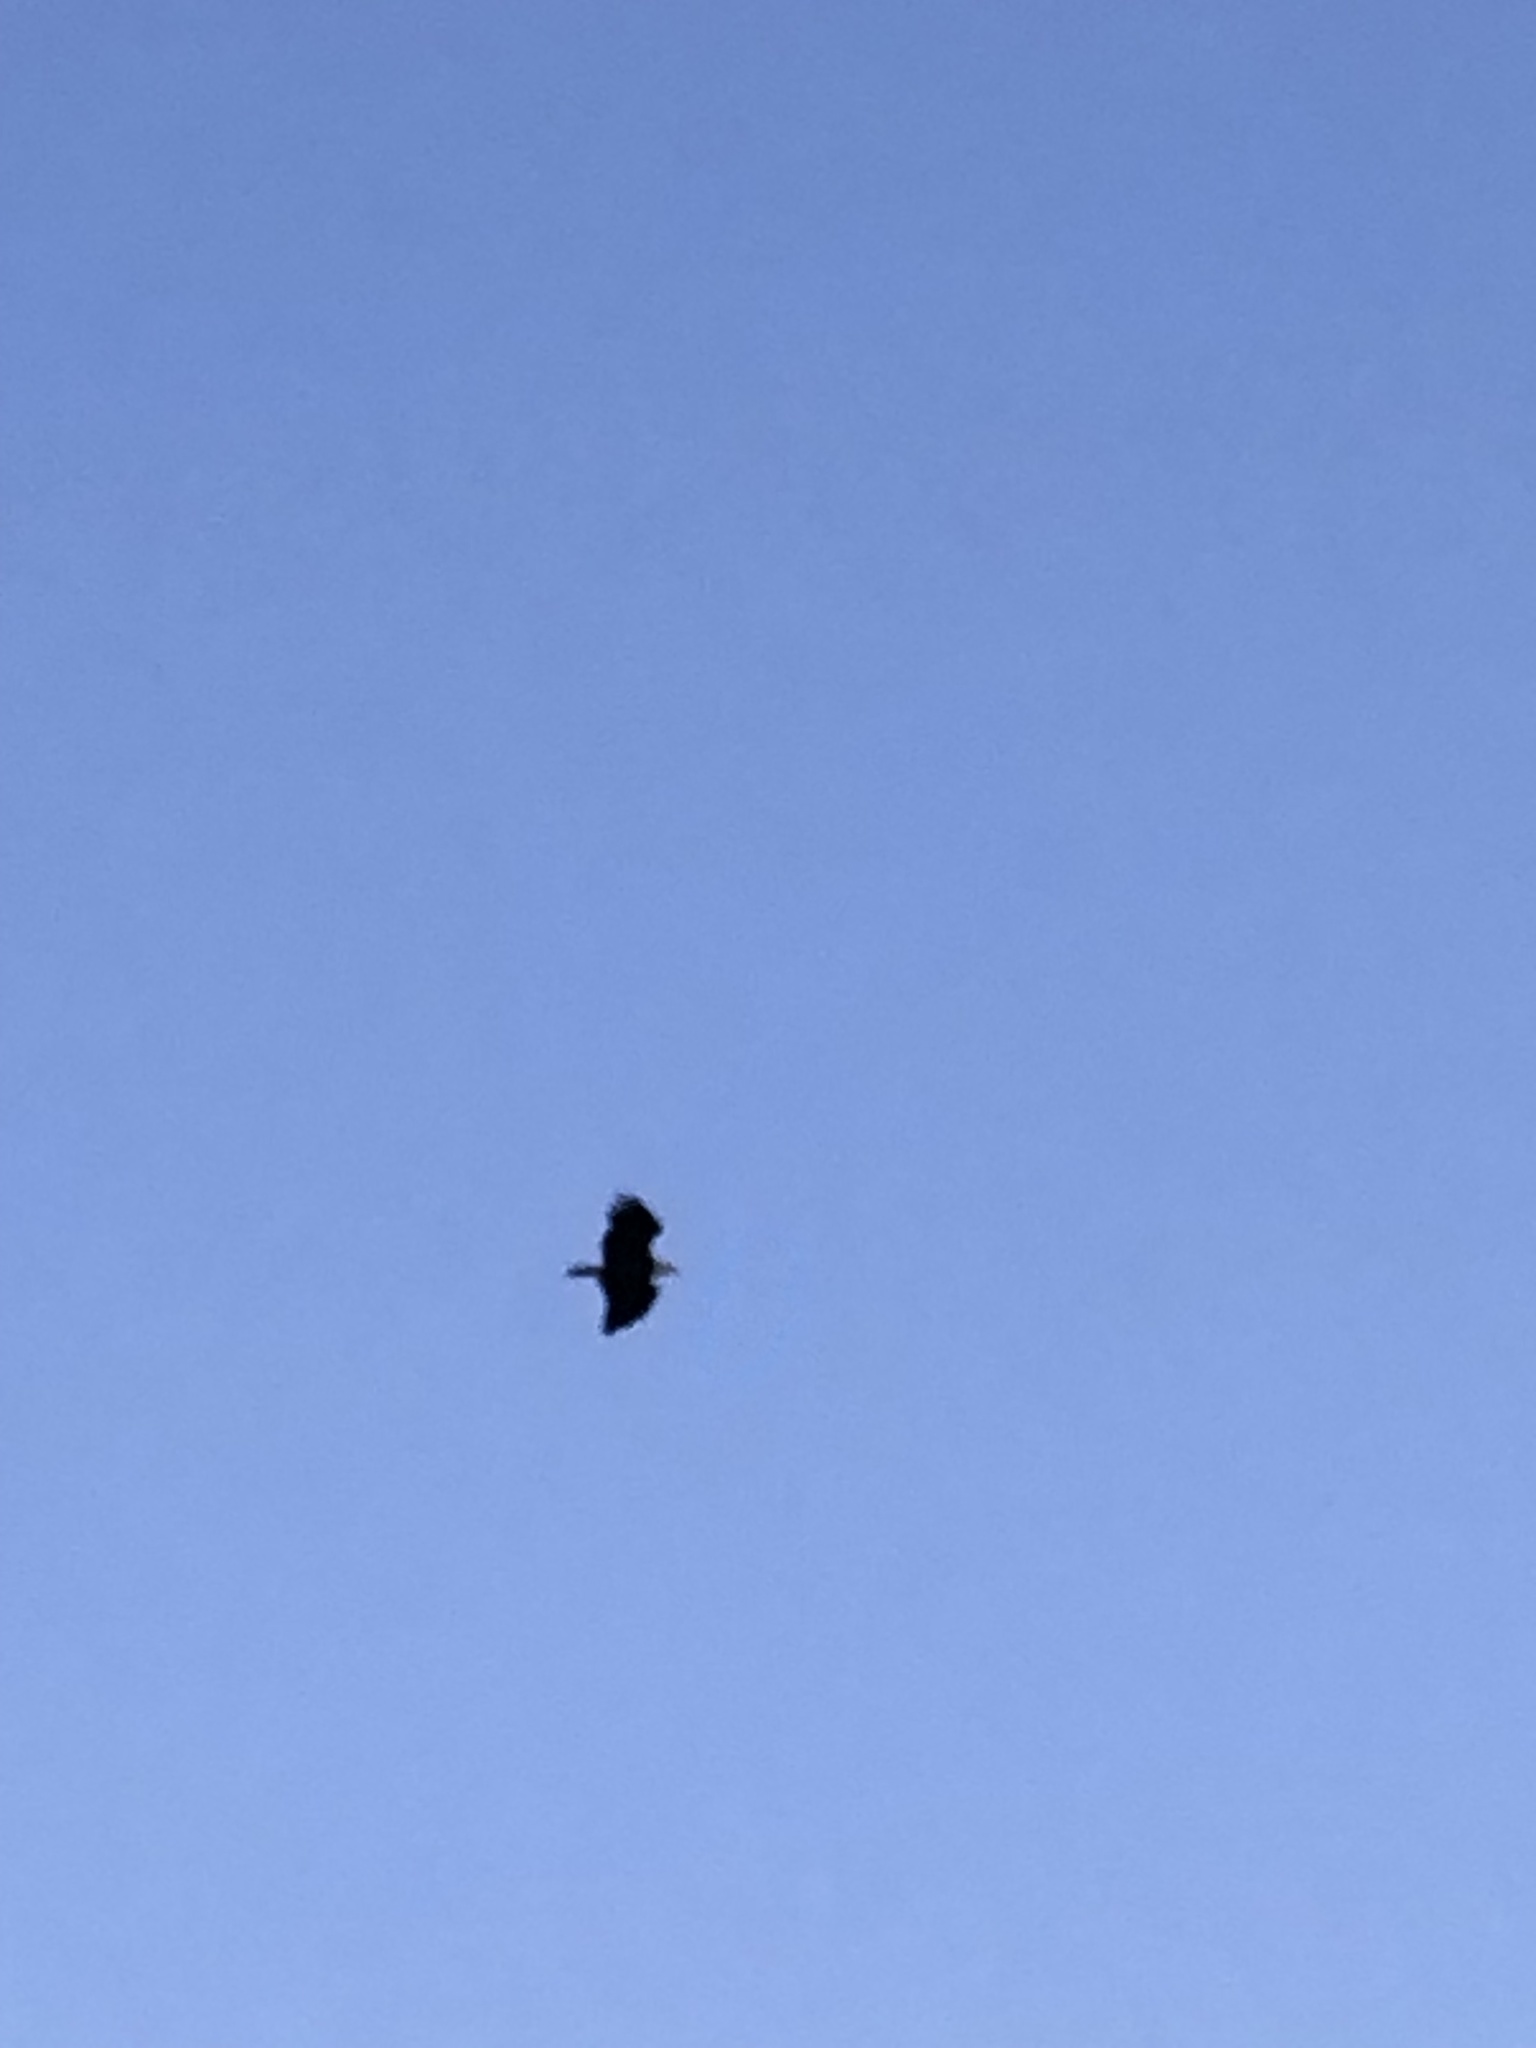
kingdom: Animalia
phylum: Chordata
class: Aves
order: Accipitriformes
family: Accipitridae
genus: Haliaeetus
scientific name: Haliaeetus leucocephalus
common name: Bald eagle
